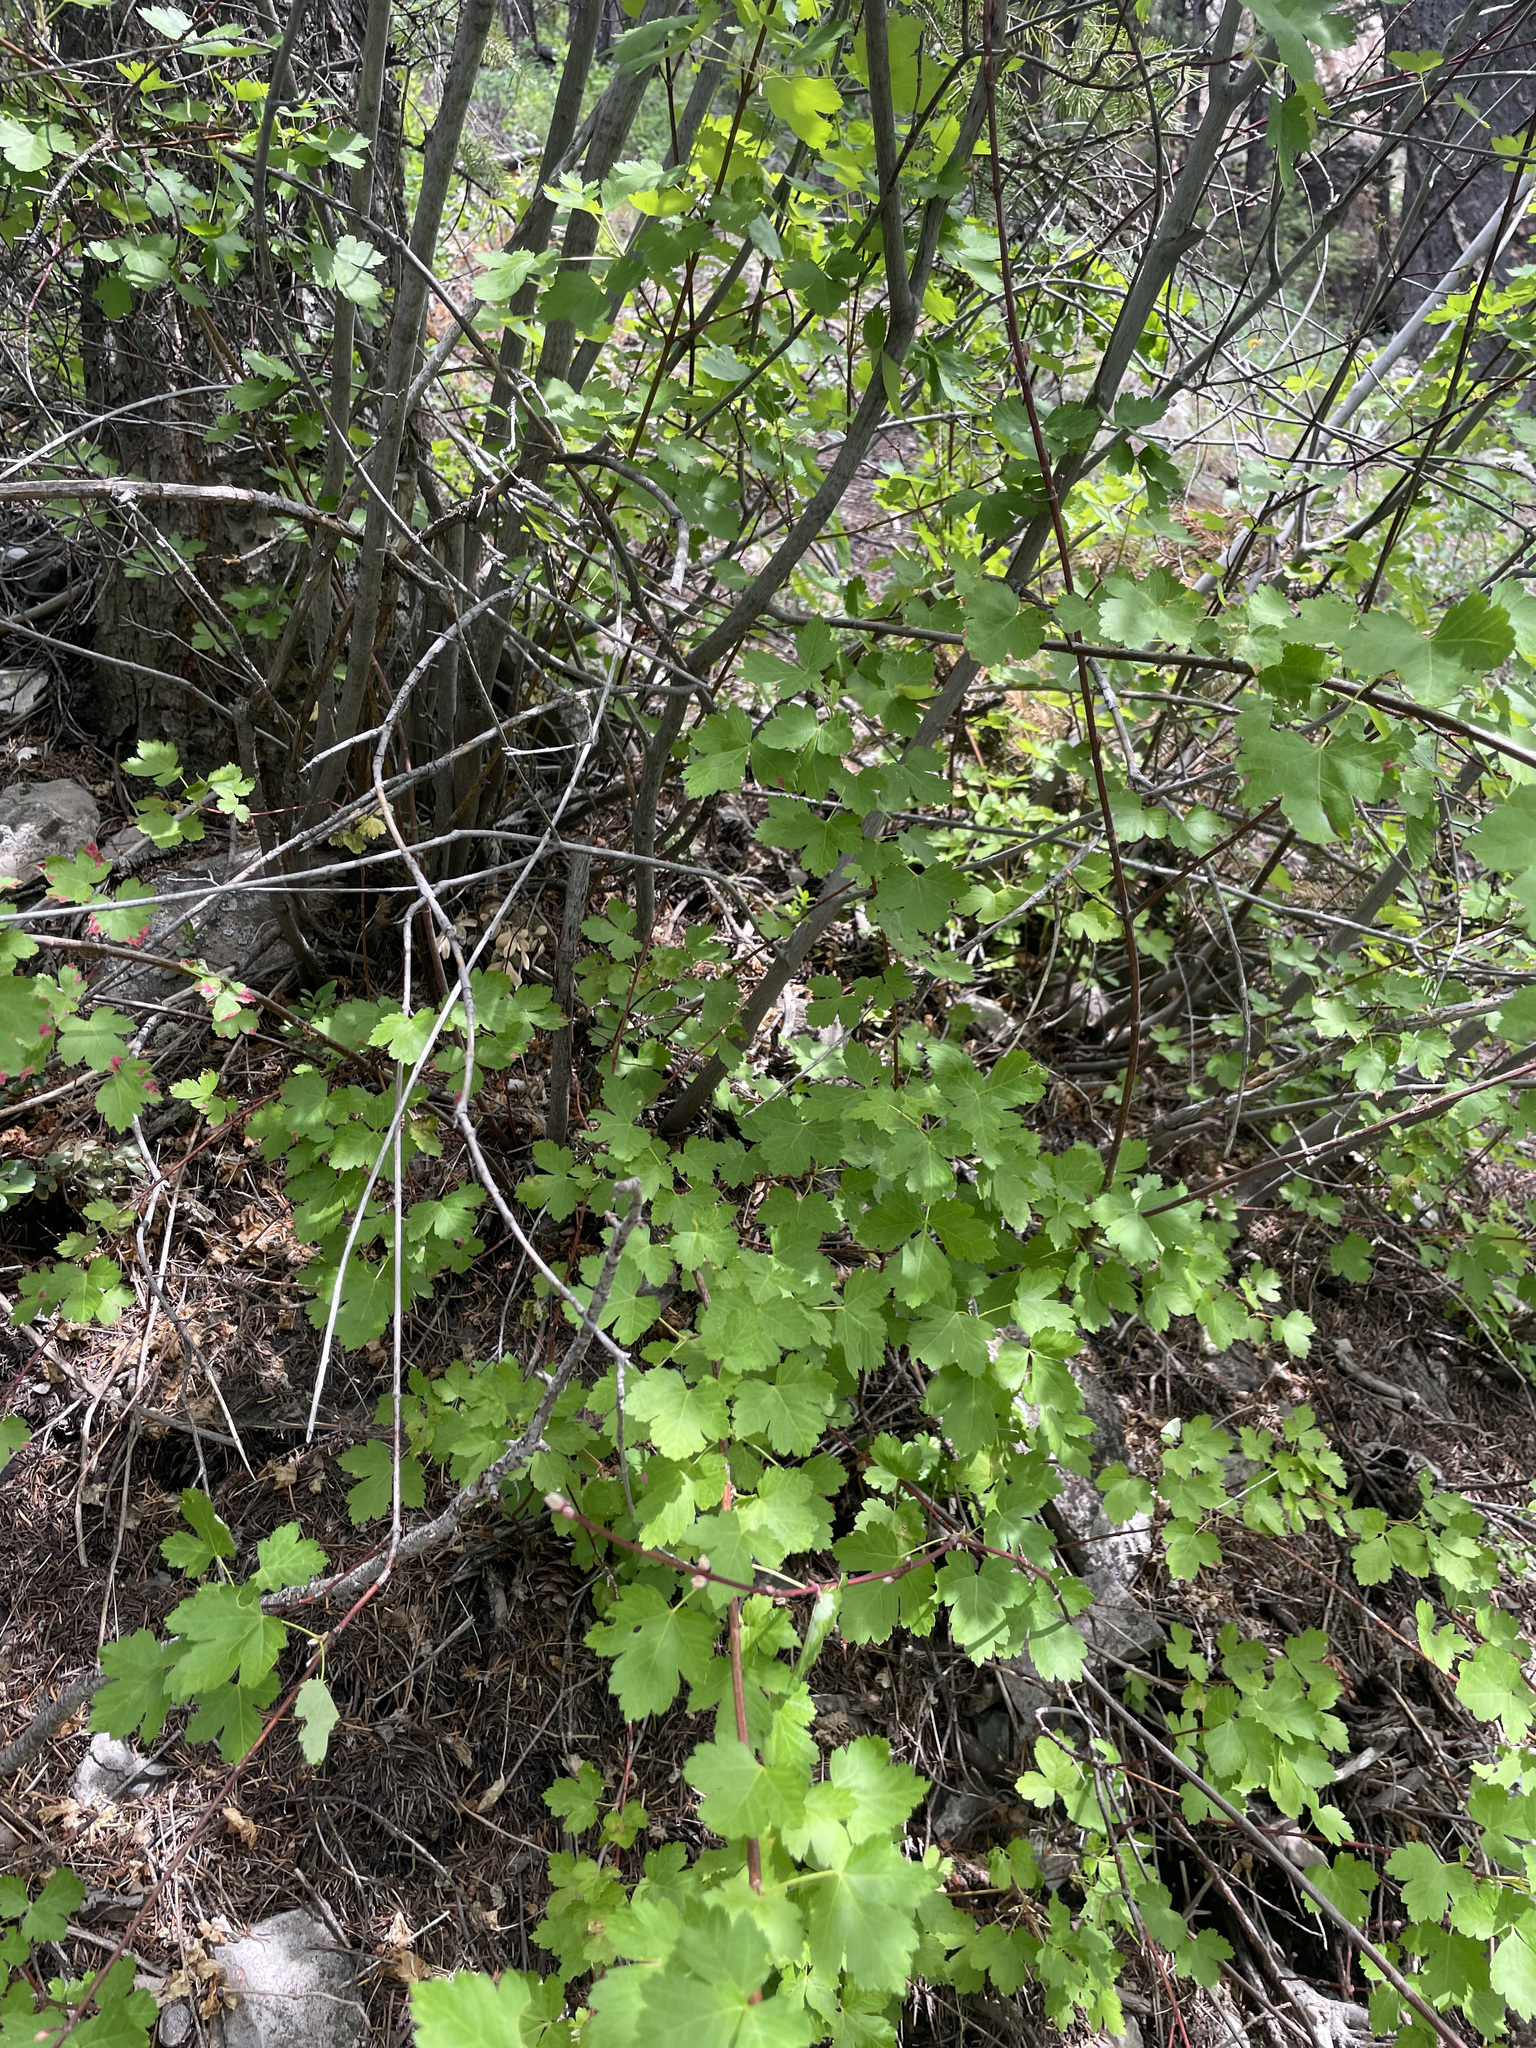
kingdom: Plantae
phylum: Tracheophyta
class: Magnoliopsida
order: Sapindales
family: Sapindaceae
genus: Acer
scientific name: Acer glabrum
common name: Rocky mountain maple
